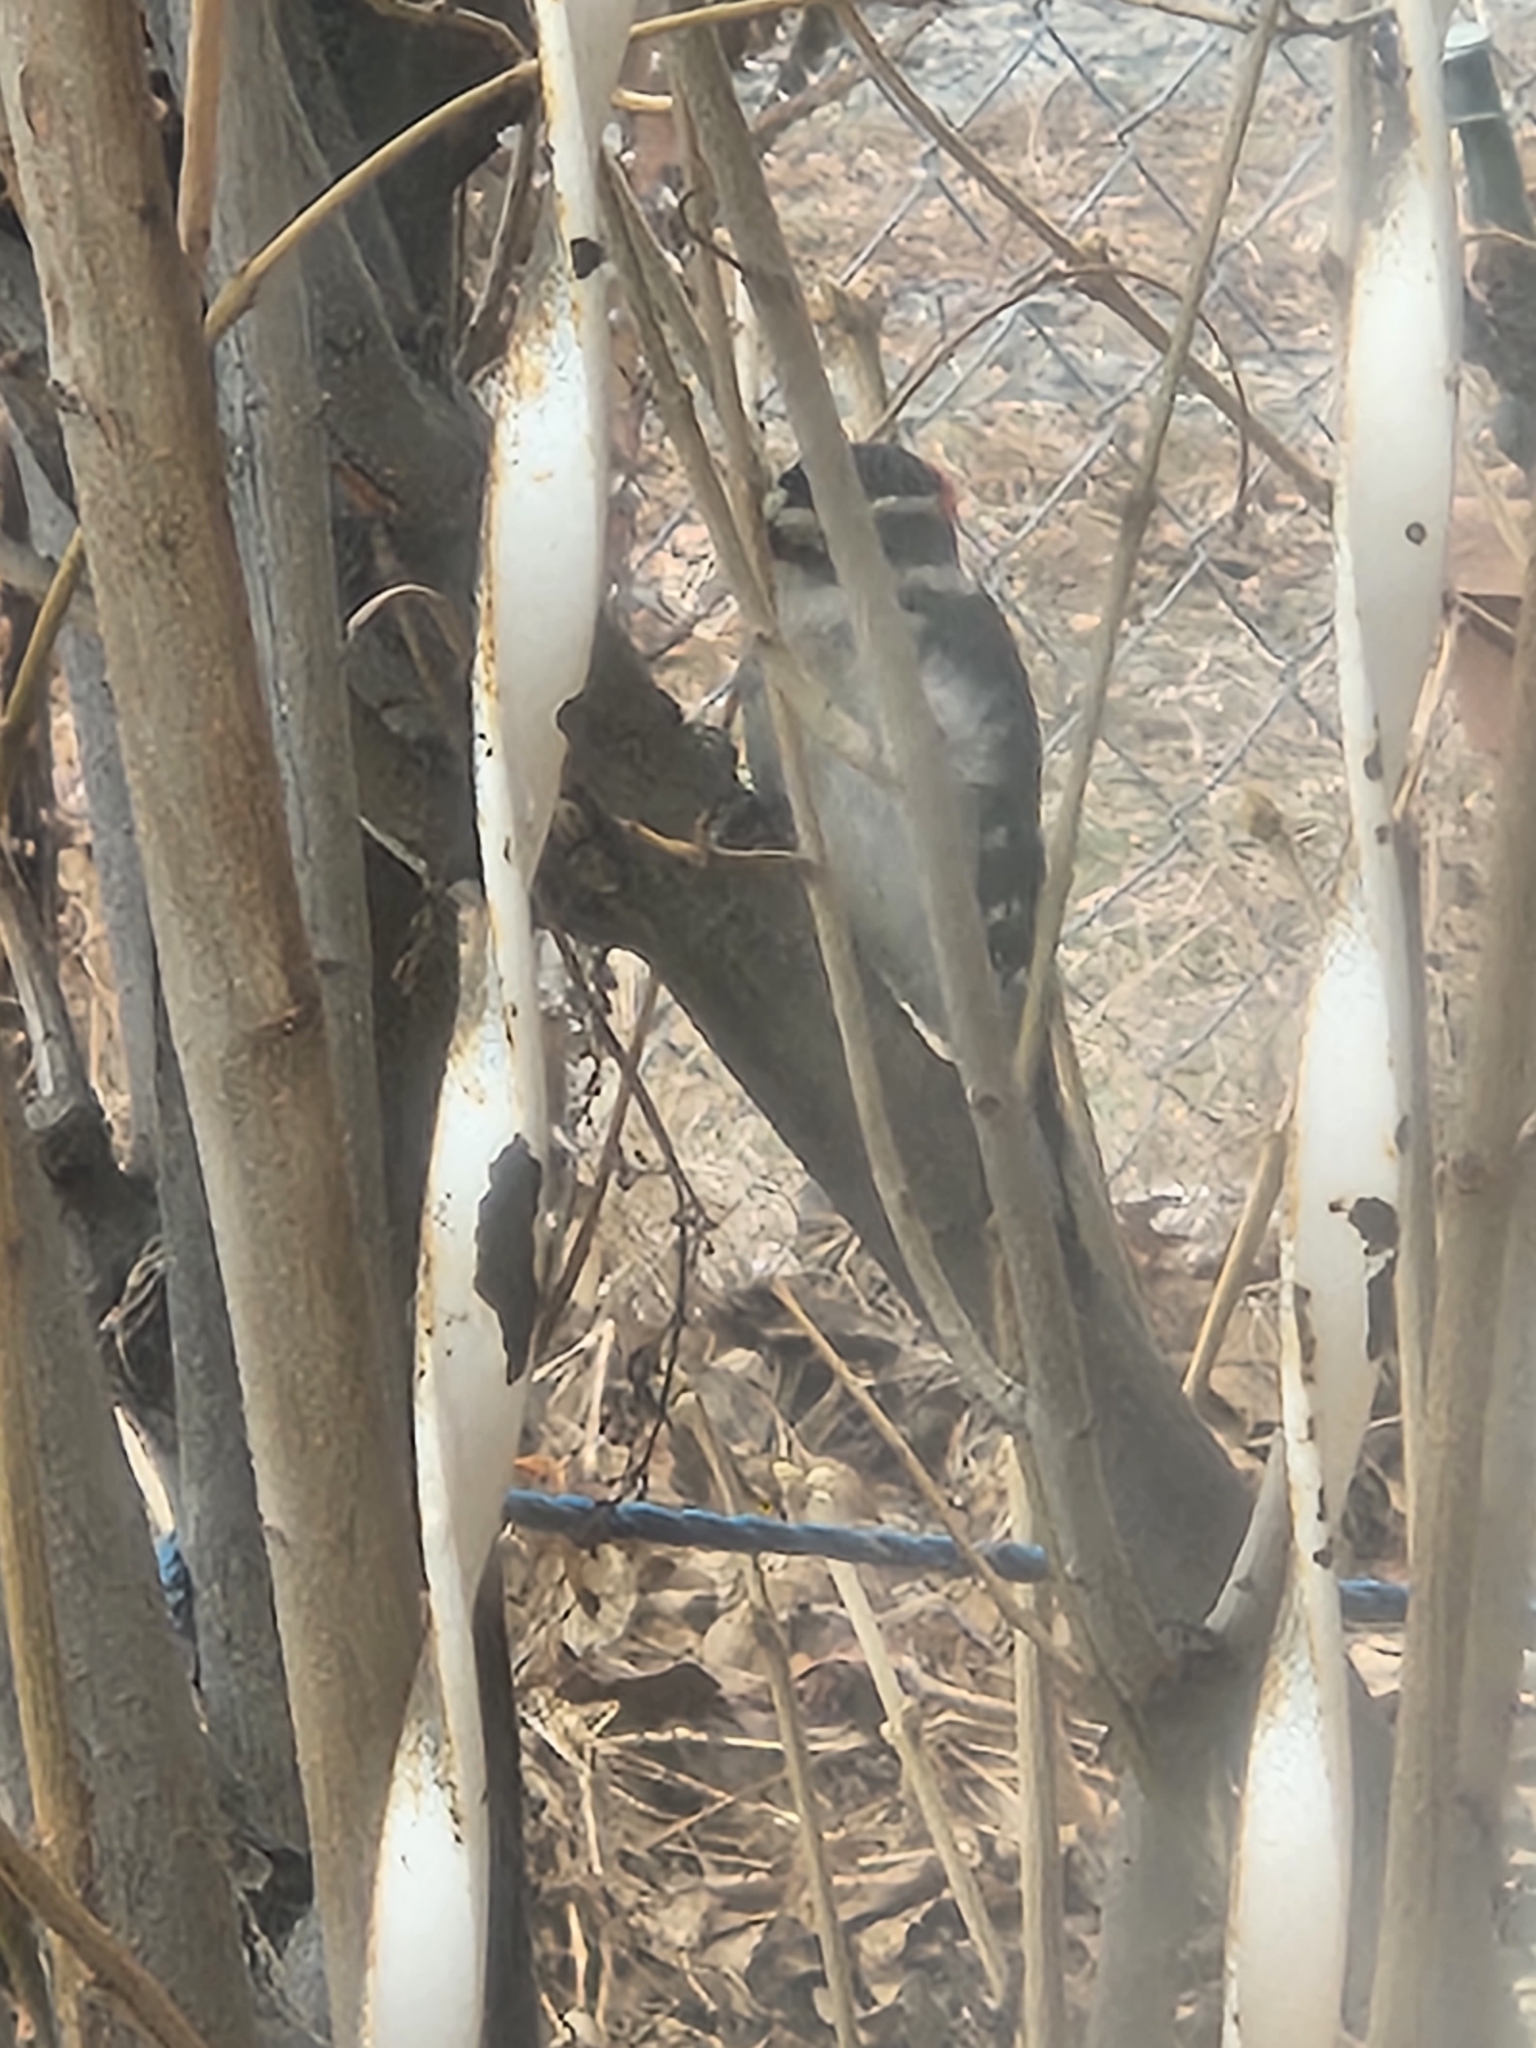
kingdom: Animalia
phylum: Chordata
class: Aves
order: Piciformes
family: Picidae
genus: Dryobates
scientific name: Dryobates pubescens
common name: Downy woodpecker
